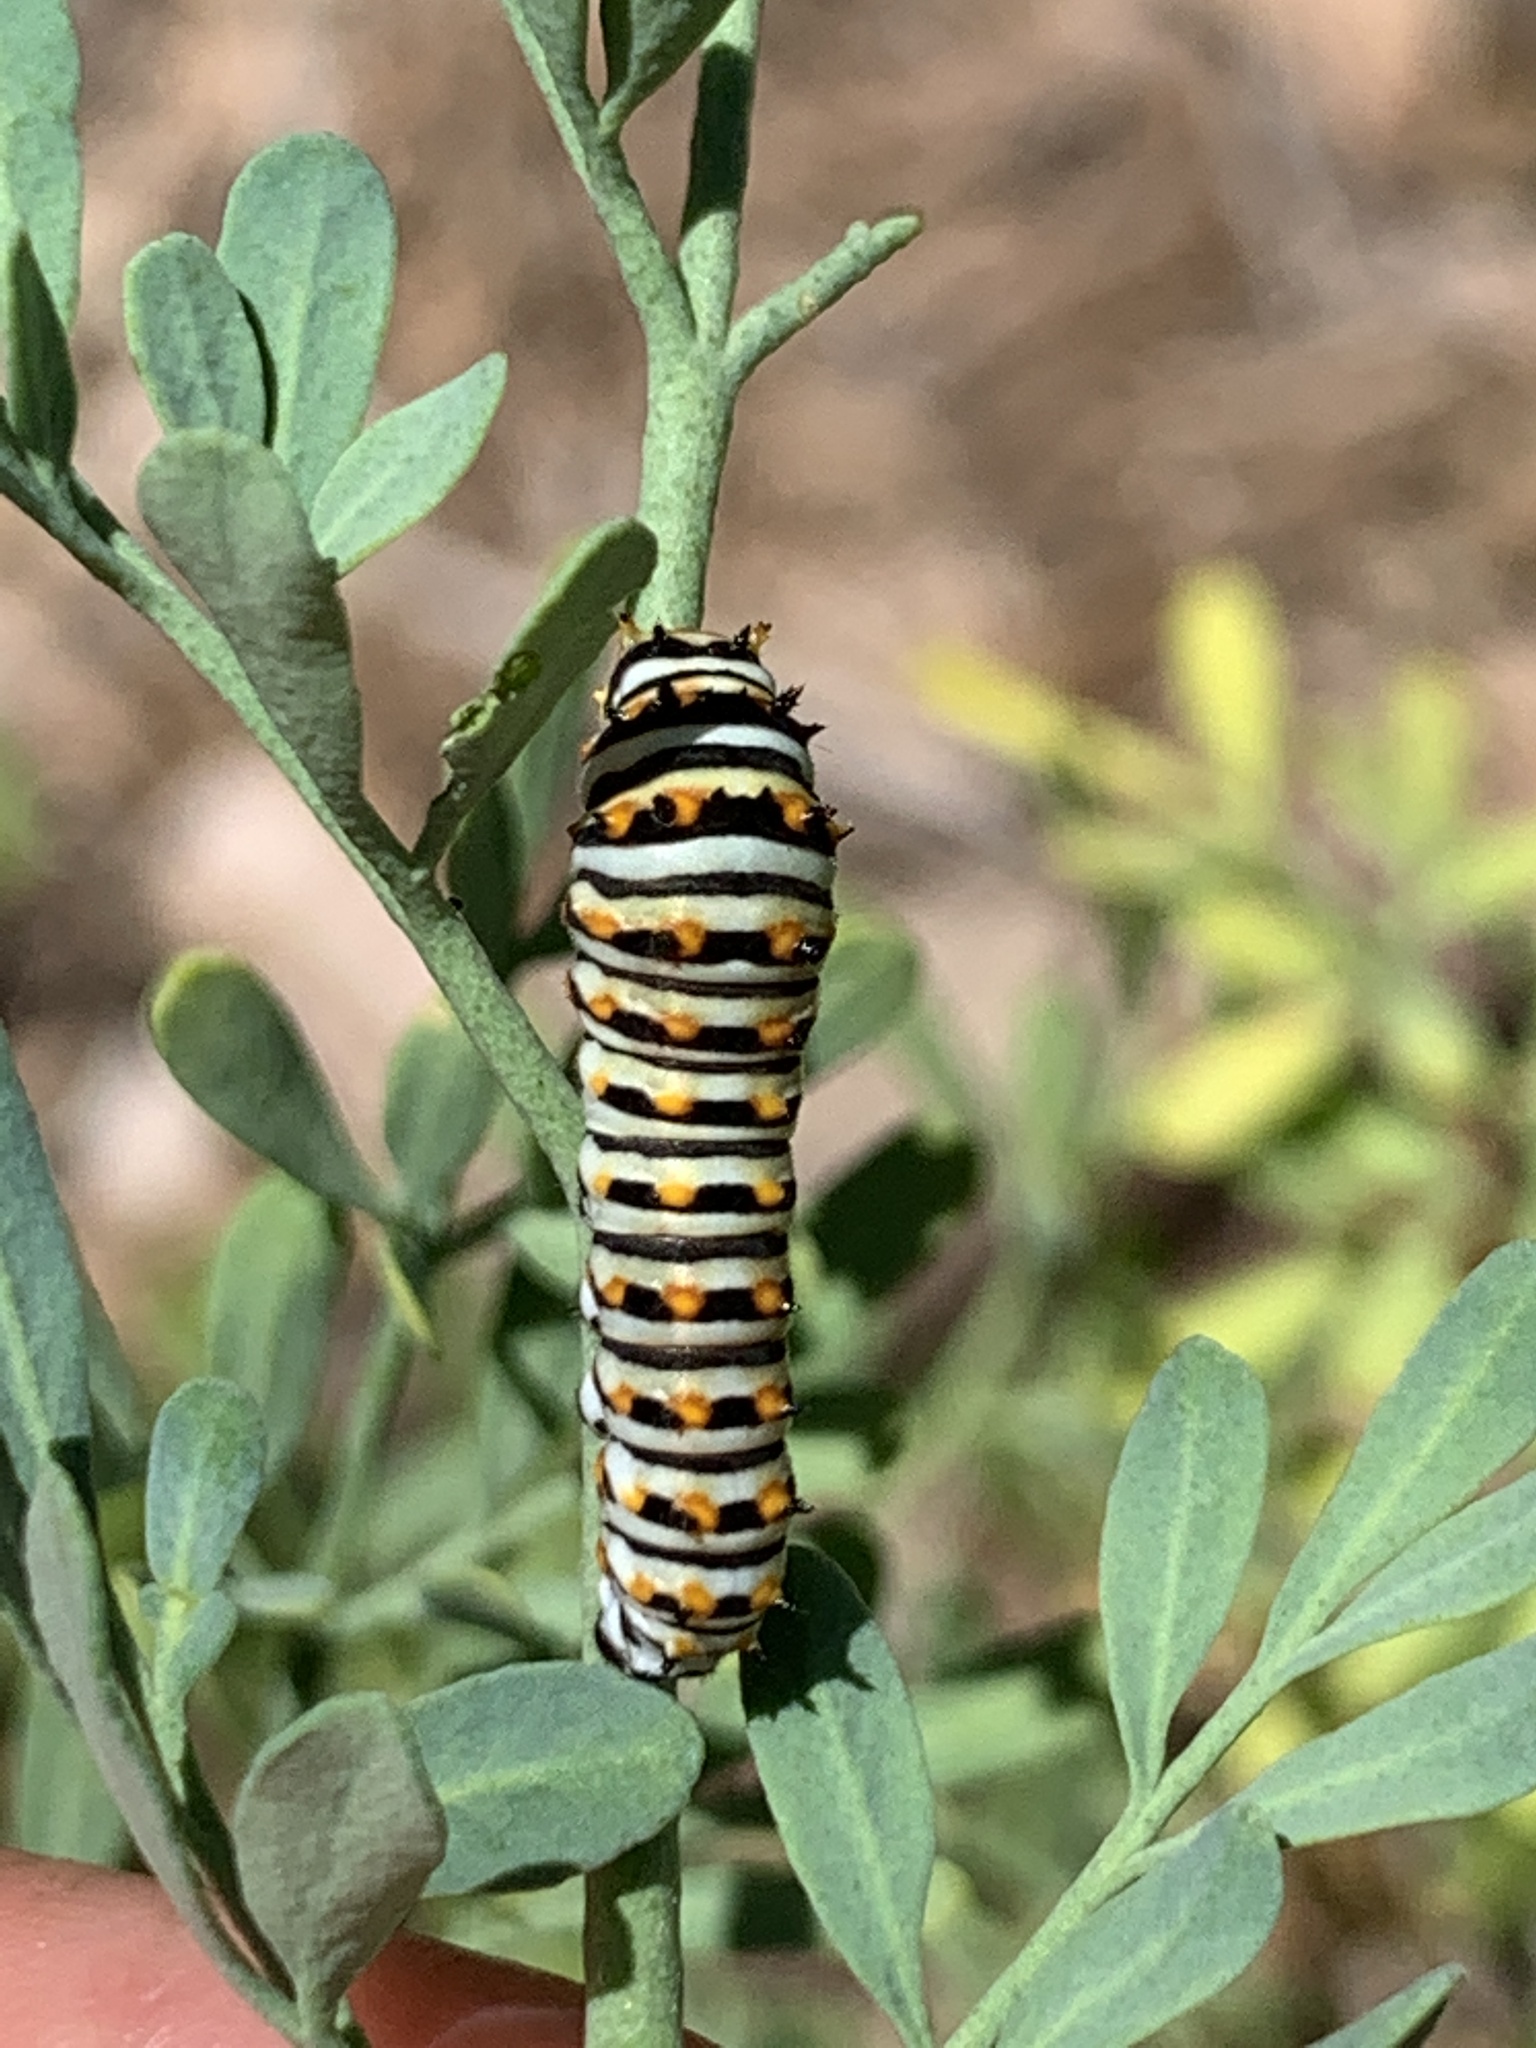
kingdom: Animalia
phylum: Arthropoda
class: Insecta
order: Lepidoptera
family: Papilionidae
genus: Papilio
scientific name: Papilio polyxenes
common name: Black swallowtail
